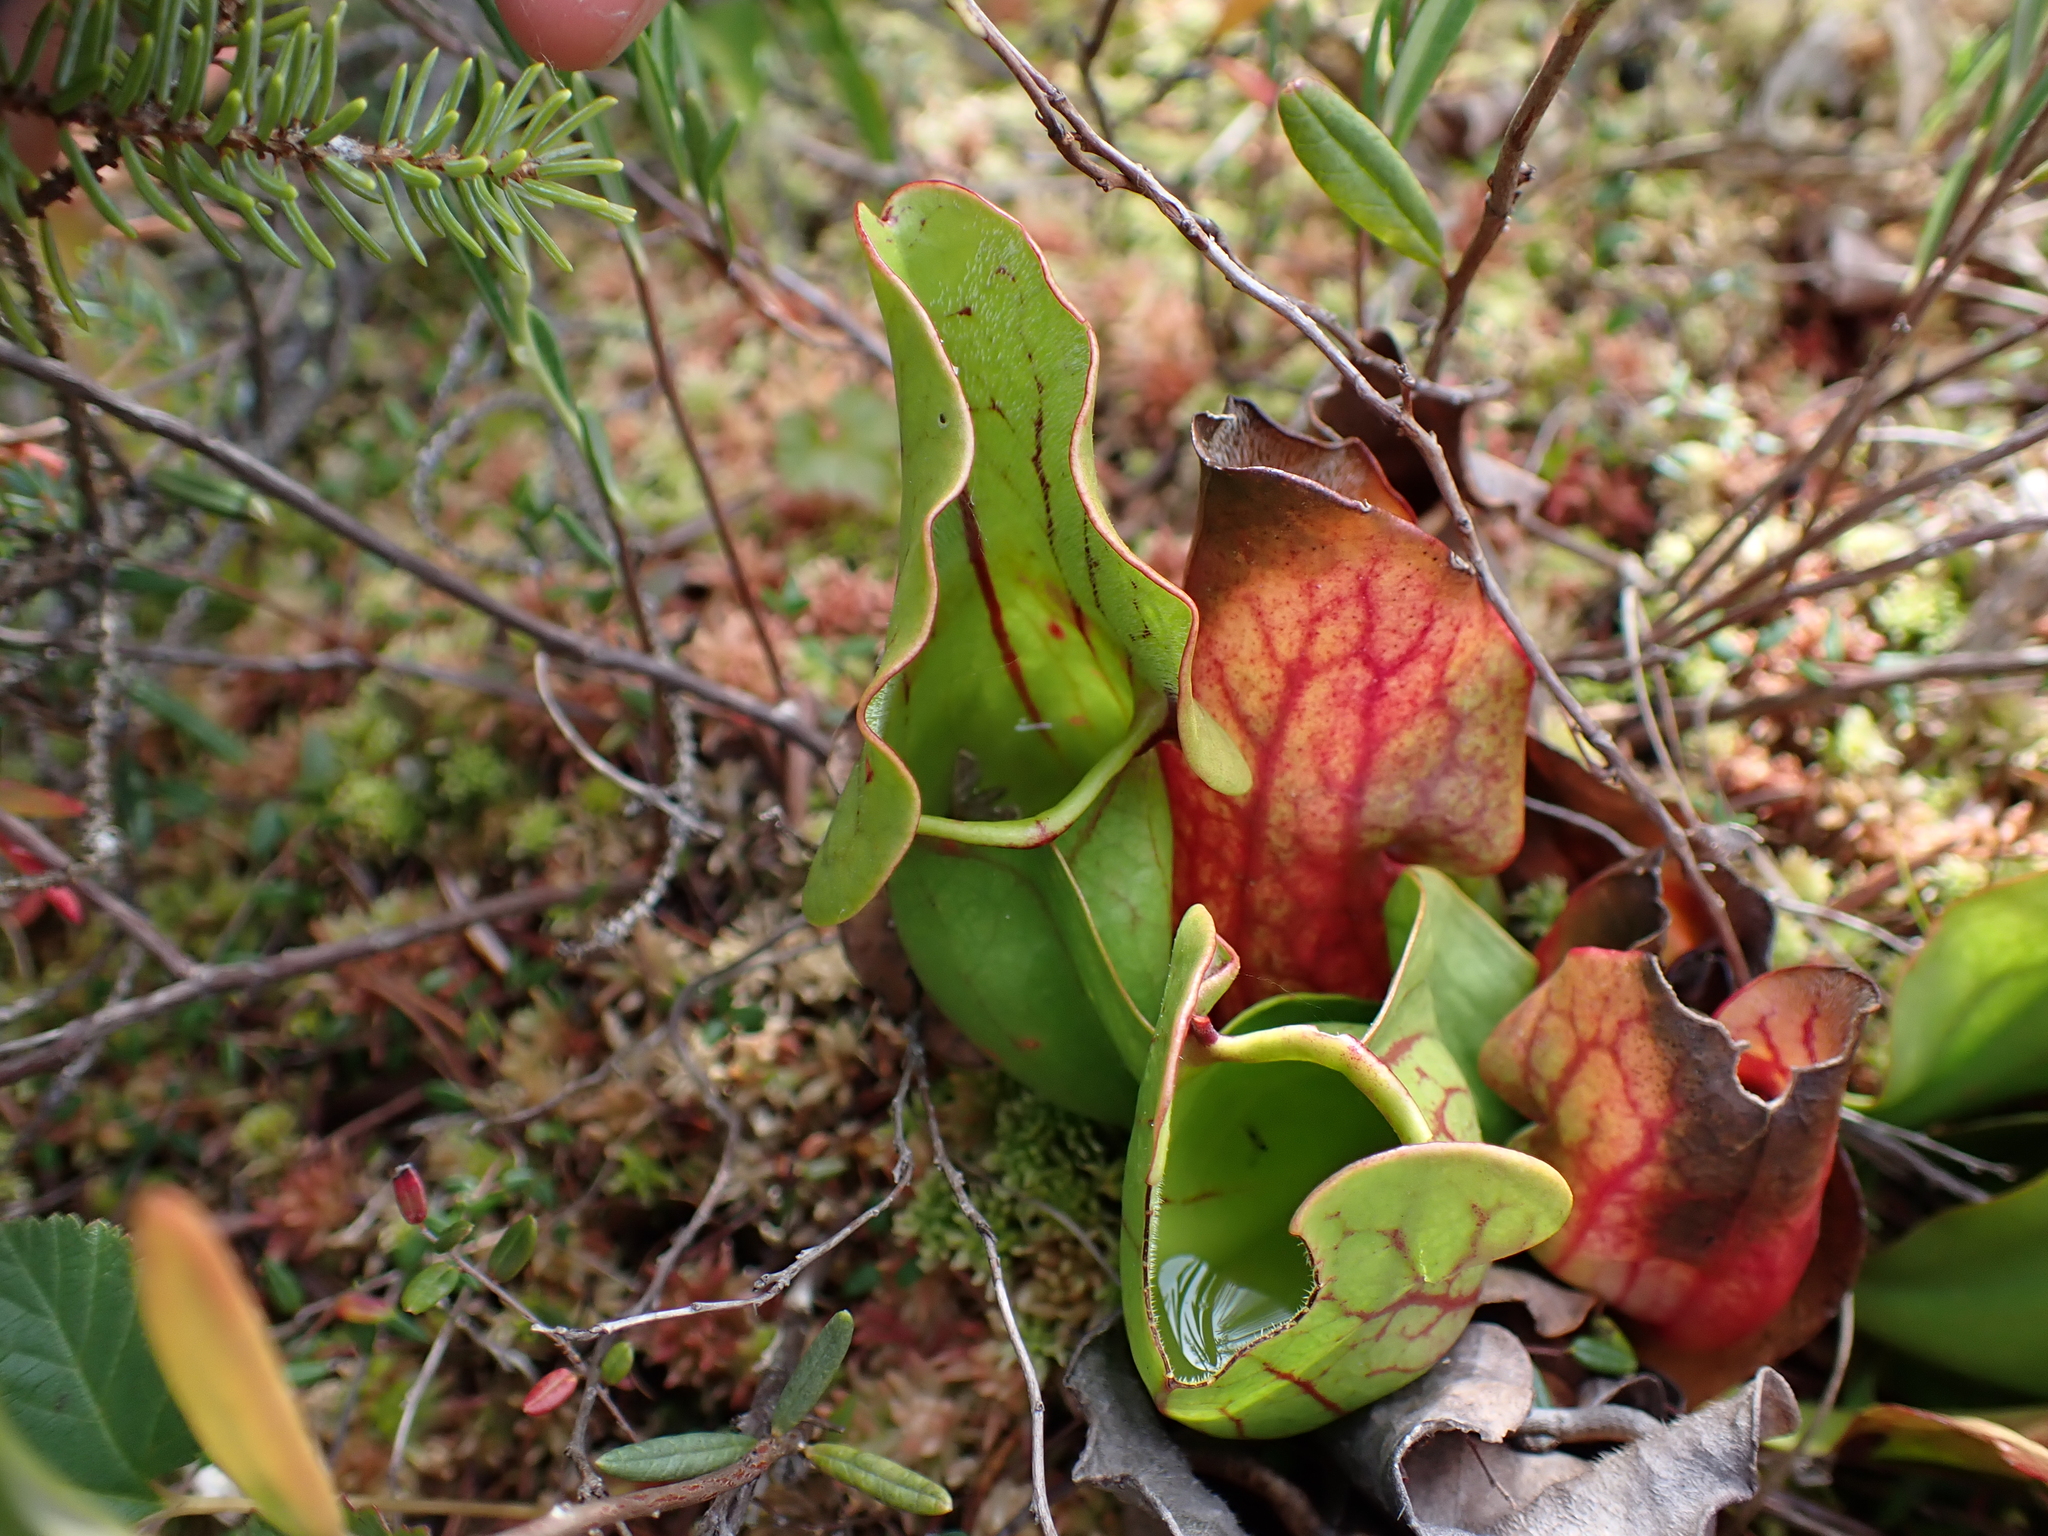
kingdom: Plantae
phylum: Tracheophyta
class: Magnoliopsida
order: Ericales
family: Sarraceniaceae
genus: Sarracenia
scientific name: Sarracenia purpurea
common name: Pitcherplant
